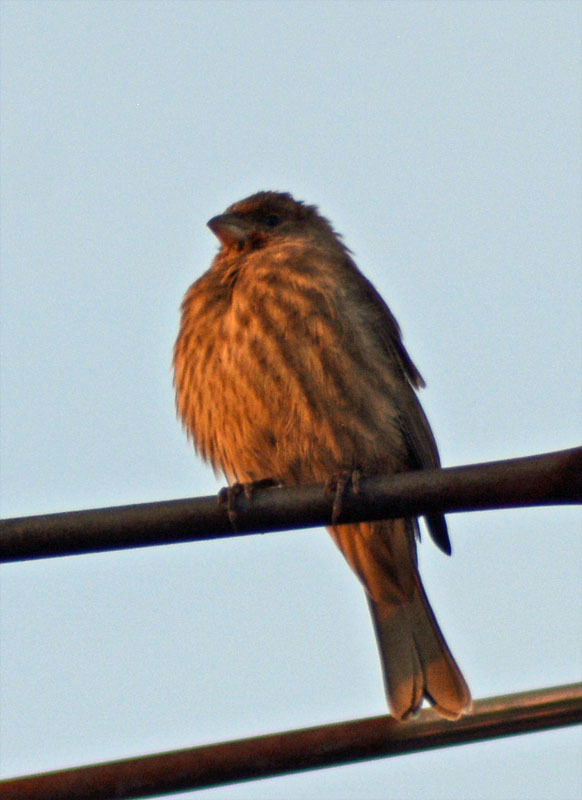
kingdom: Animalia
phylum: Chordata
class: Aves
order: Passeriformes
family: Fringillidae
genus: Haemorhous
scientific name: Haemorhous mexicanus
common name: House finch
